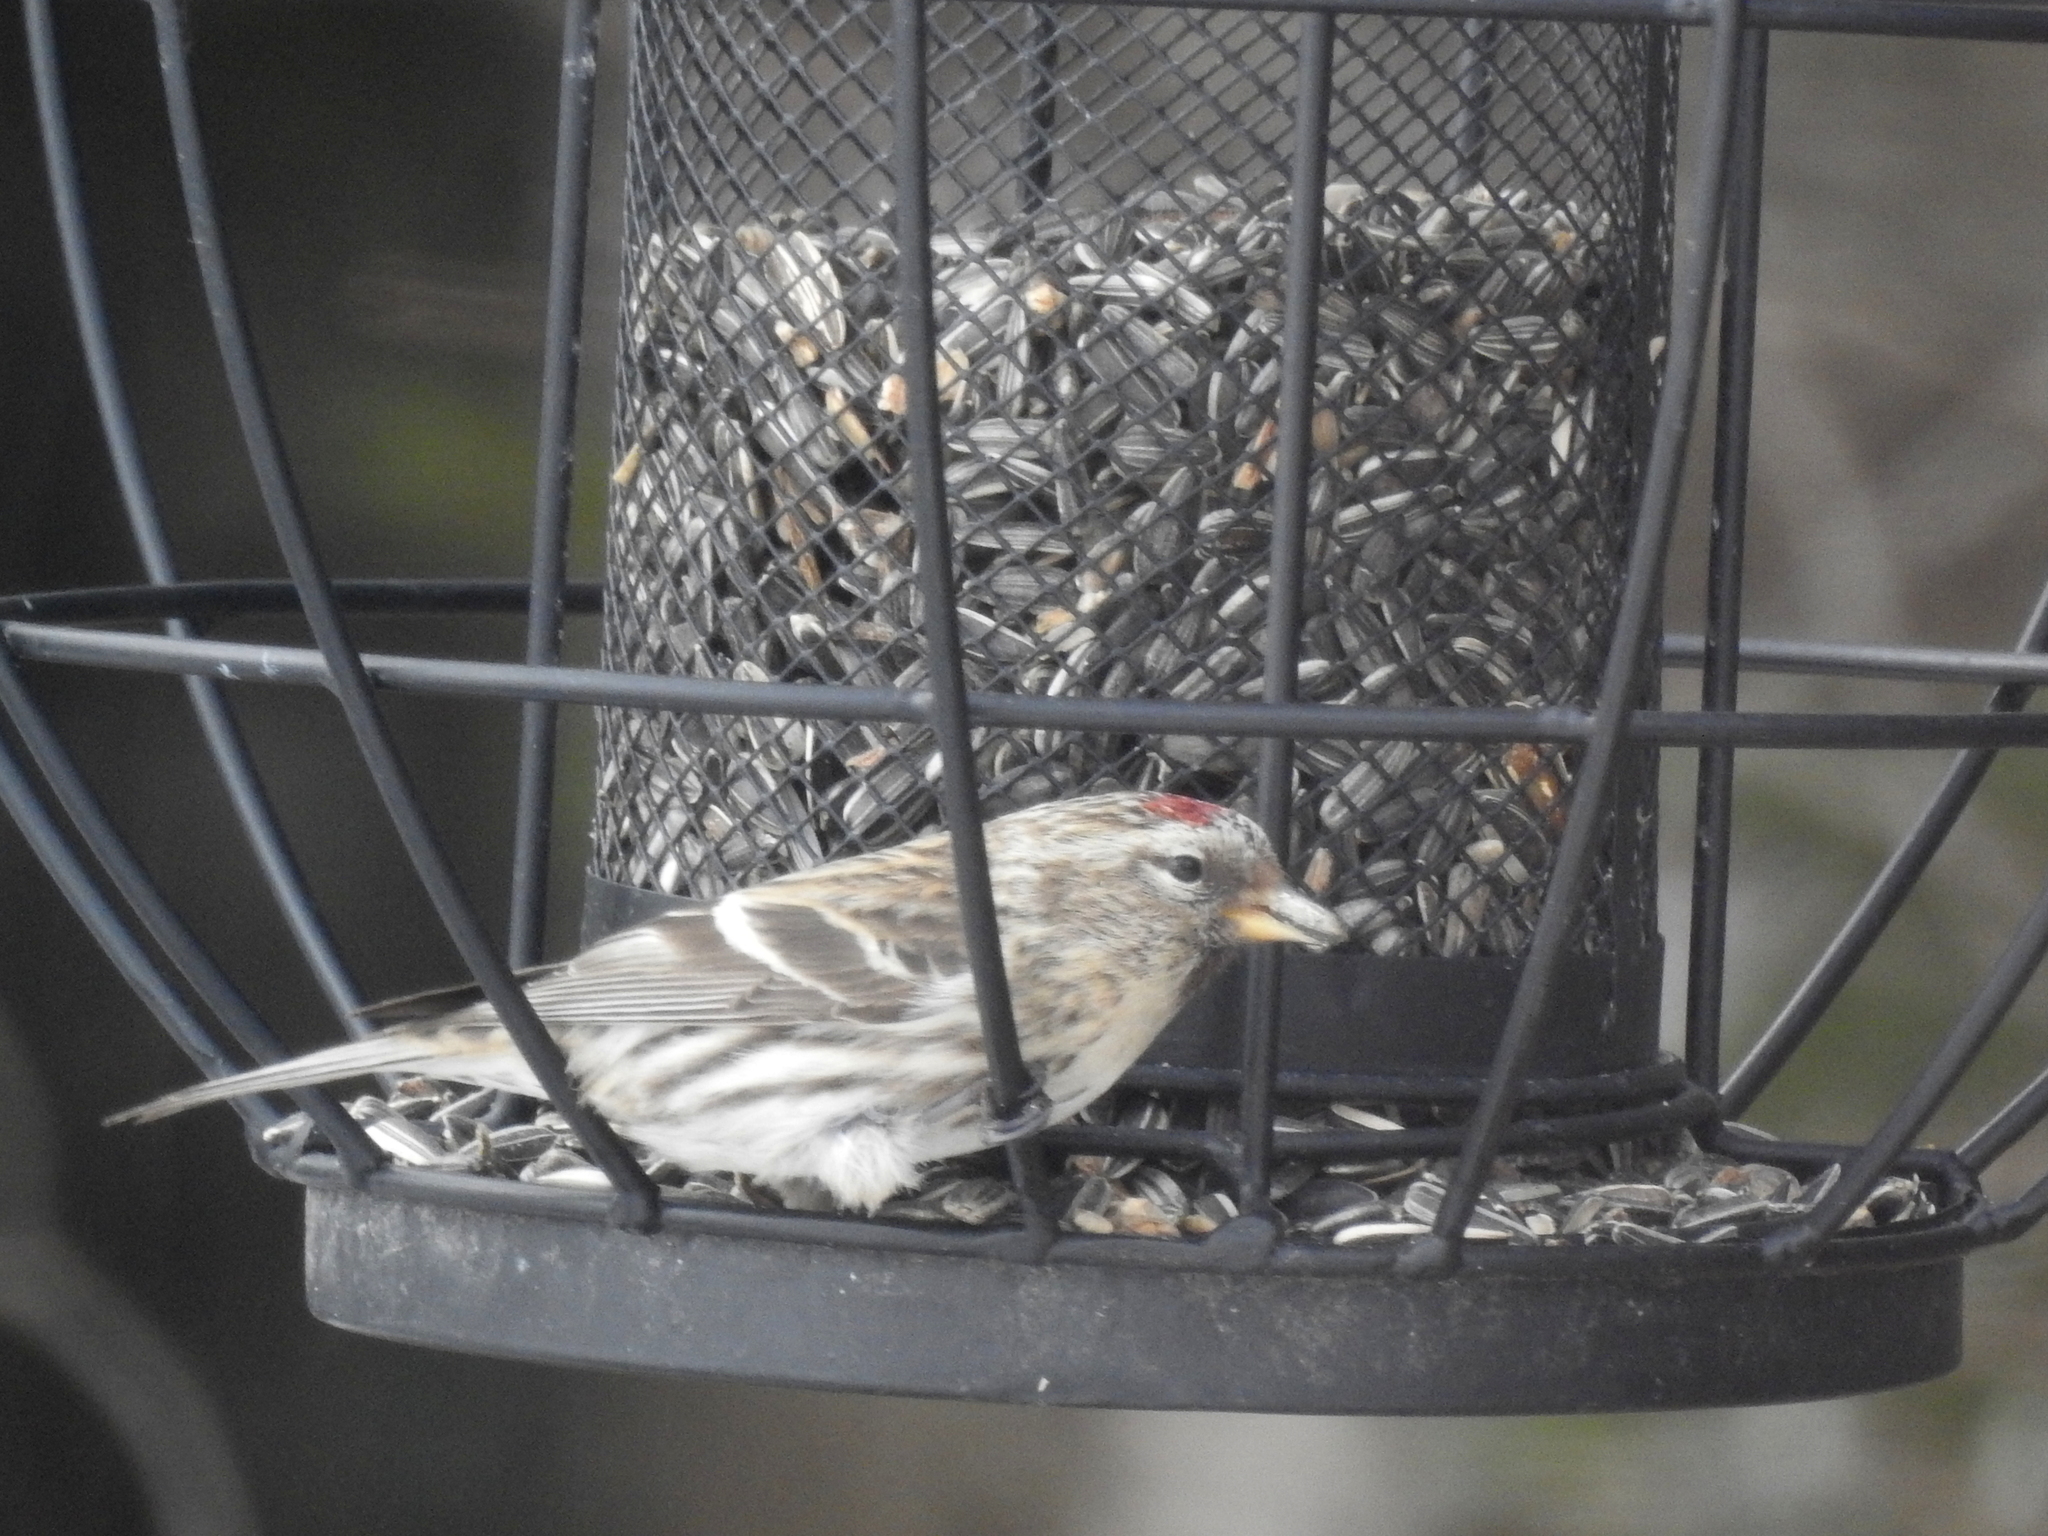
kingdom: Animalia
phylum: Chordata
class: Aves
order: Passeriformes
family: Fringillidae
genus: Acanthis
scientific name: Acanthis flammea
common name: Common redpoll
